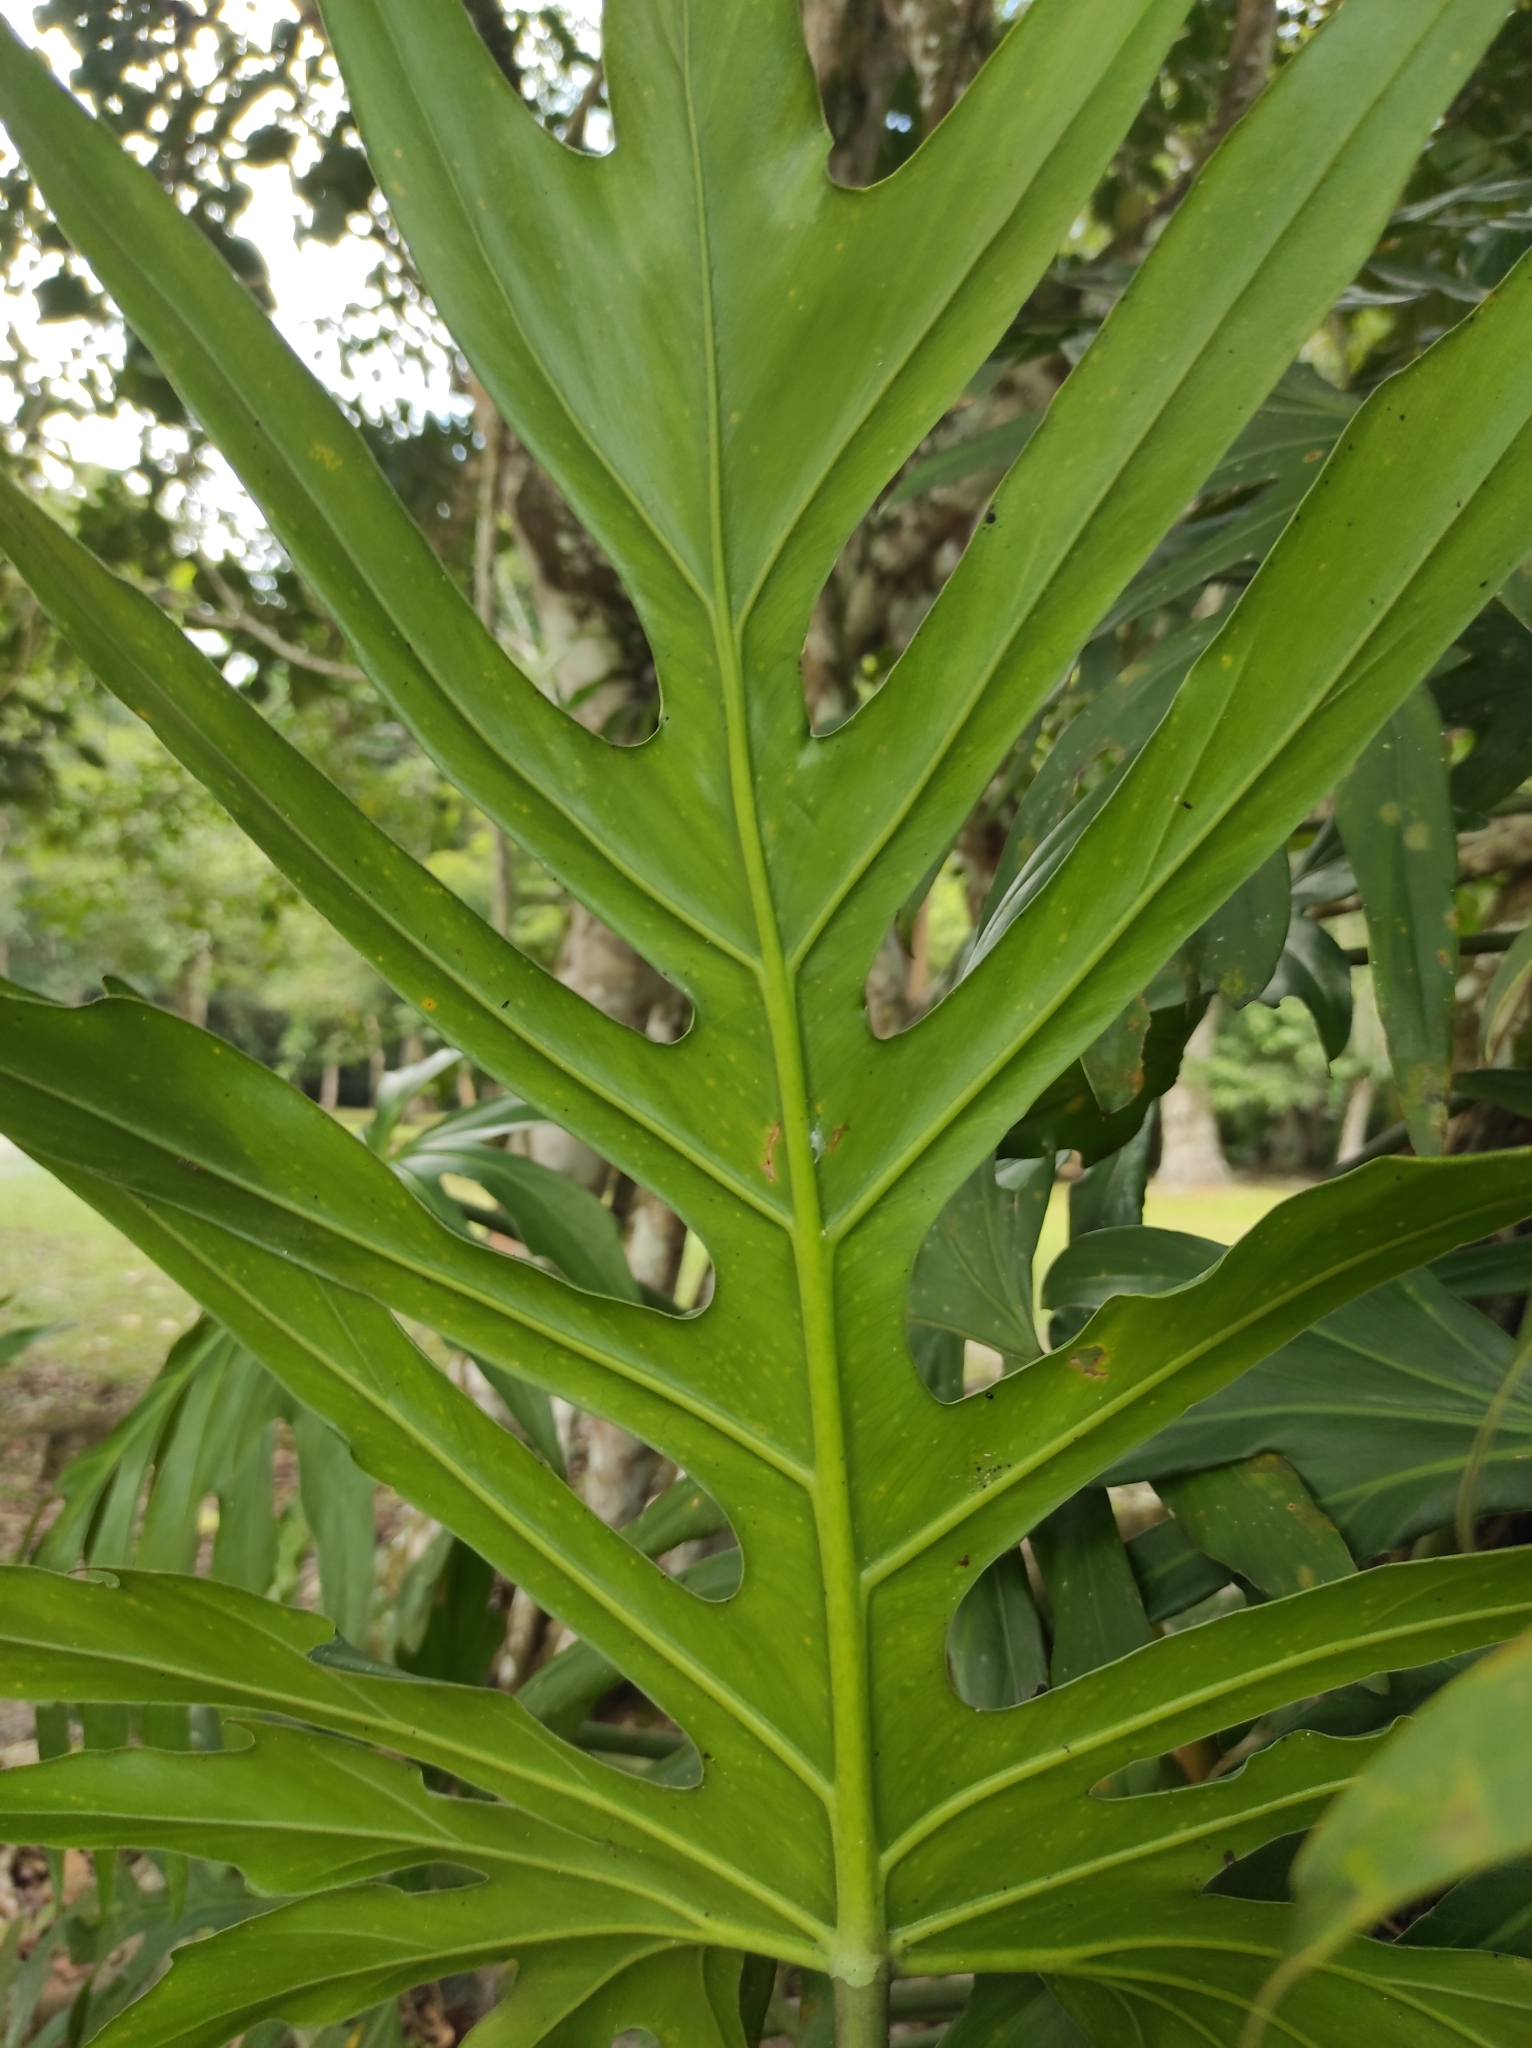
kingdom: Plantae
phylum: Tracheophyta
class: Liliopsida
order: Alismatales
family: Araceae
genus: Philodendron
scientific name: Philodendron radiatum
